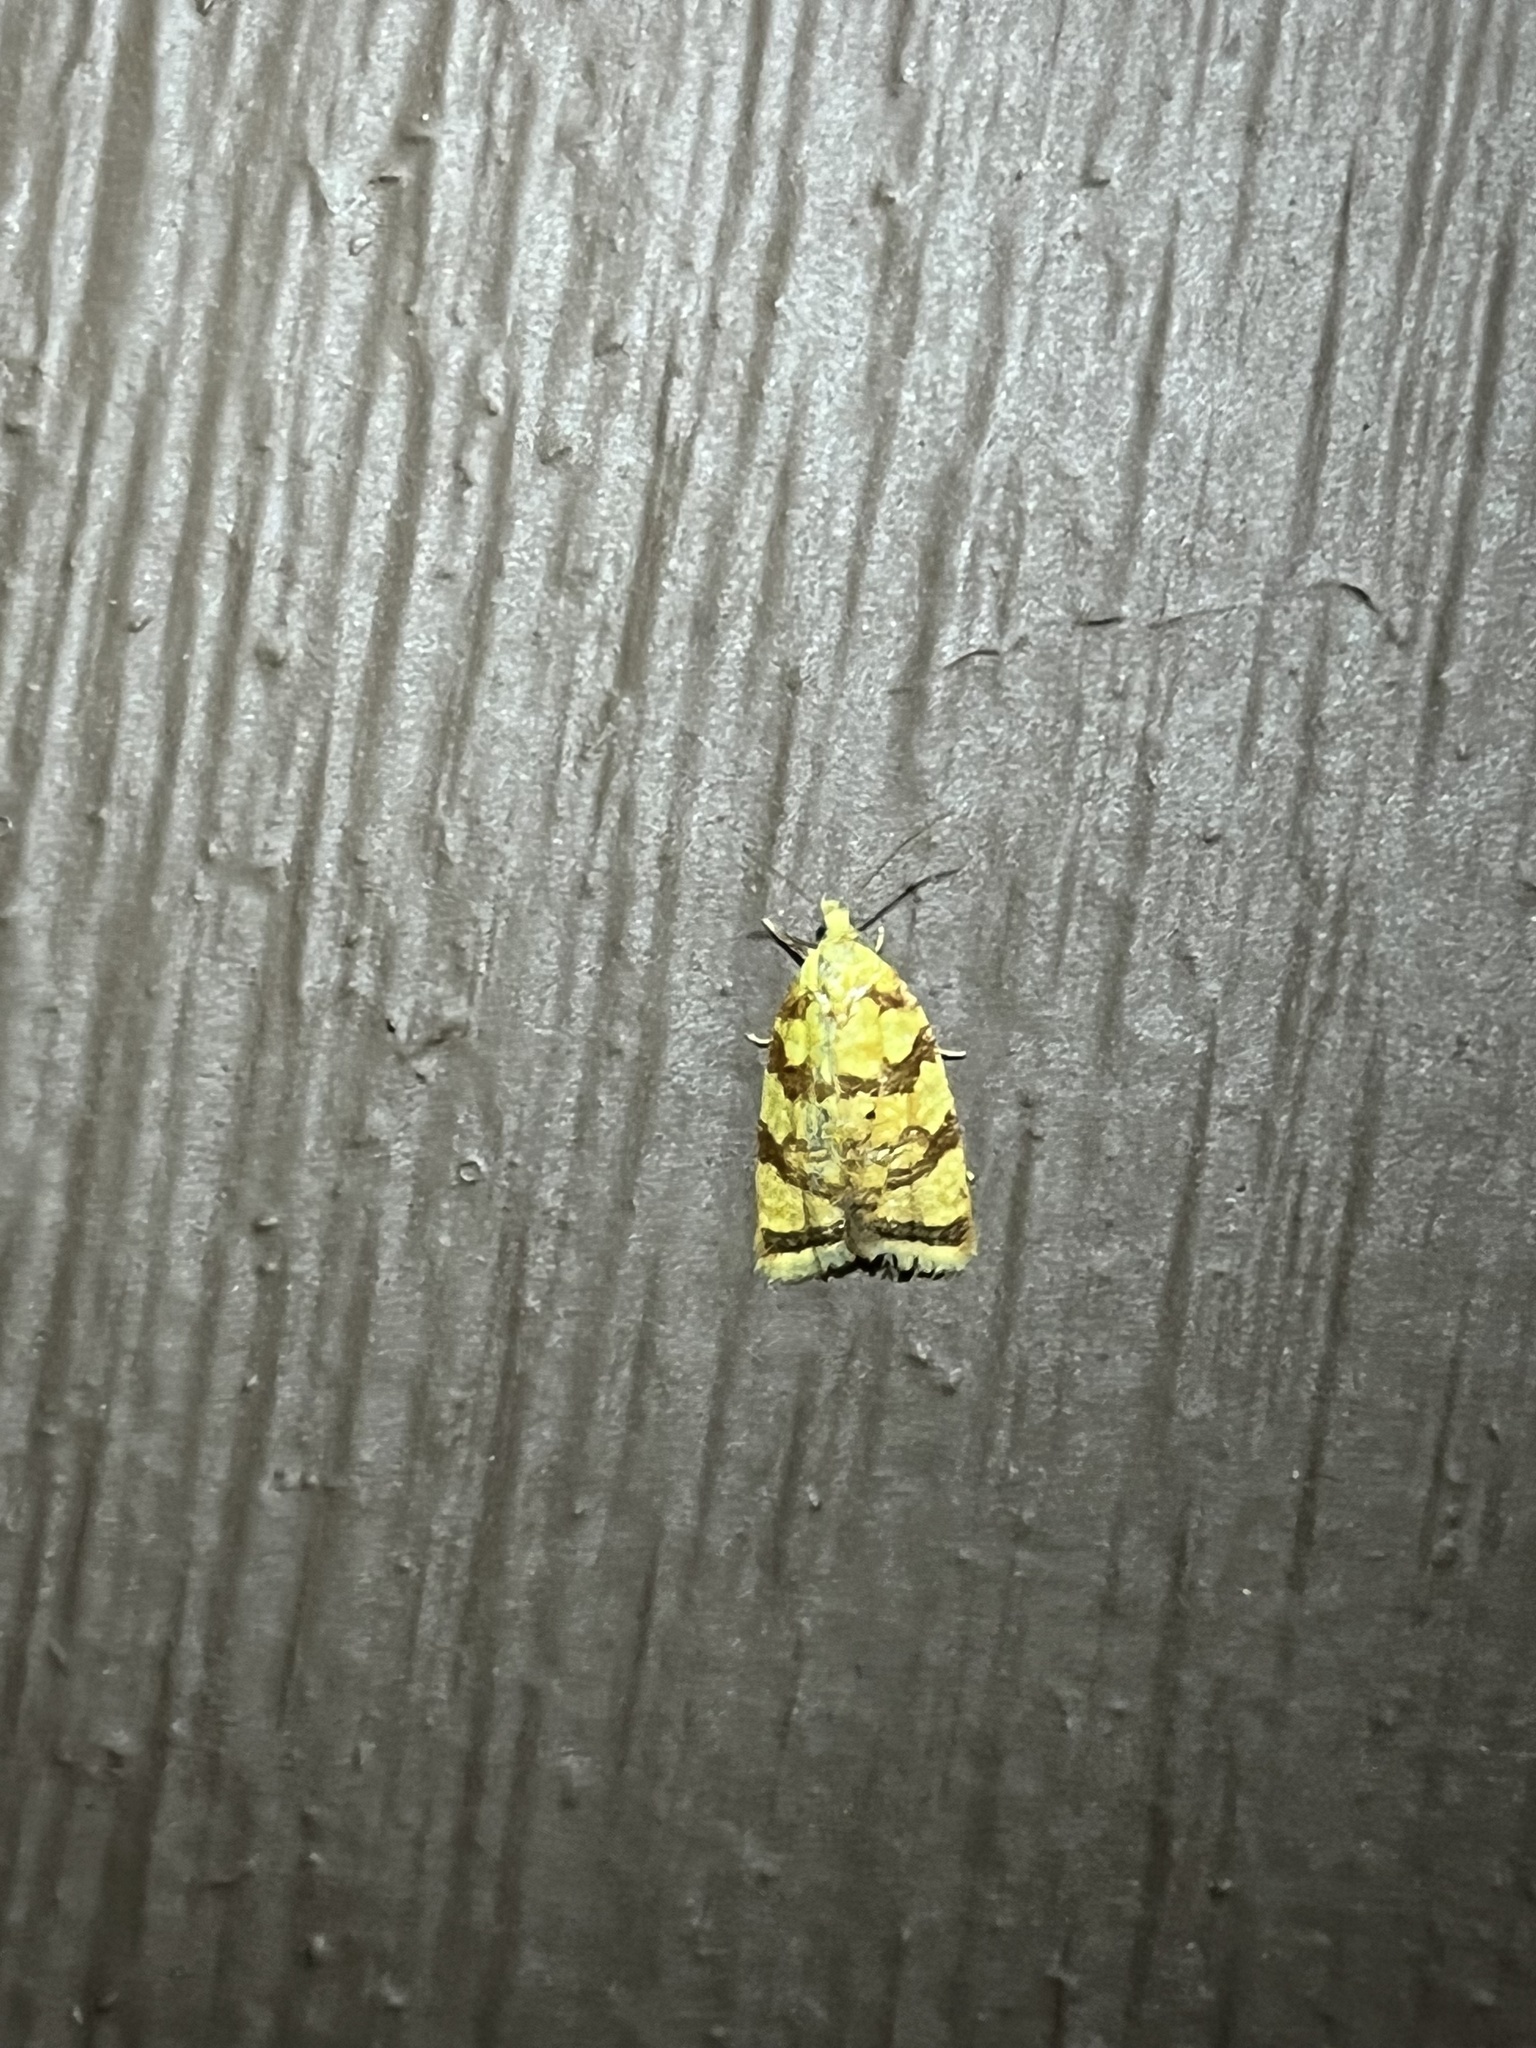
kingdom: Animalia
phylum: Arthropoda
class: Insecta
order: Lepidoptera
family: Tortricidae
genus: Acleris
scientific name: Acleris albicomana
